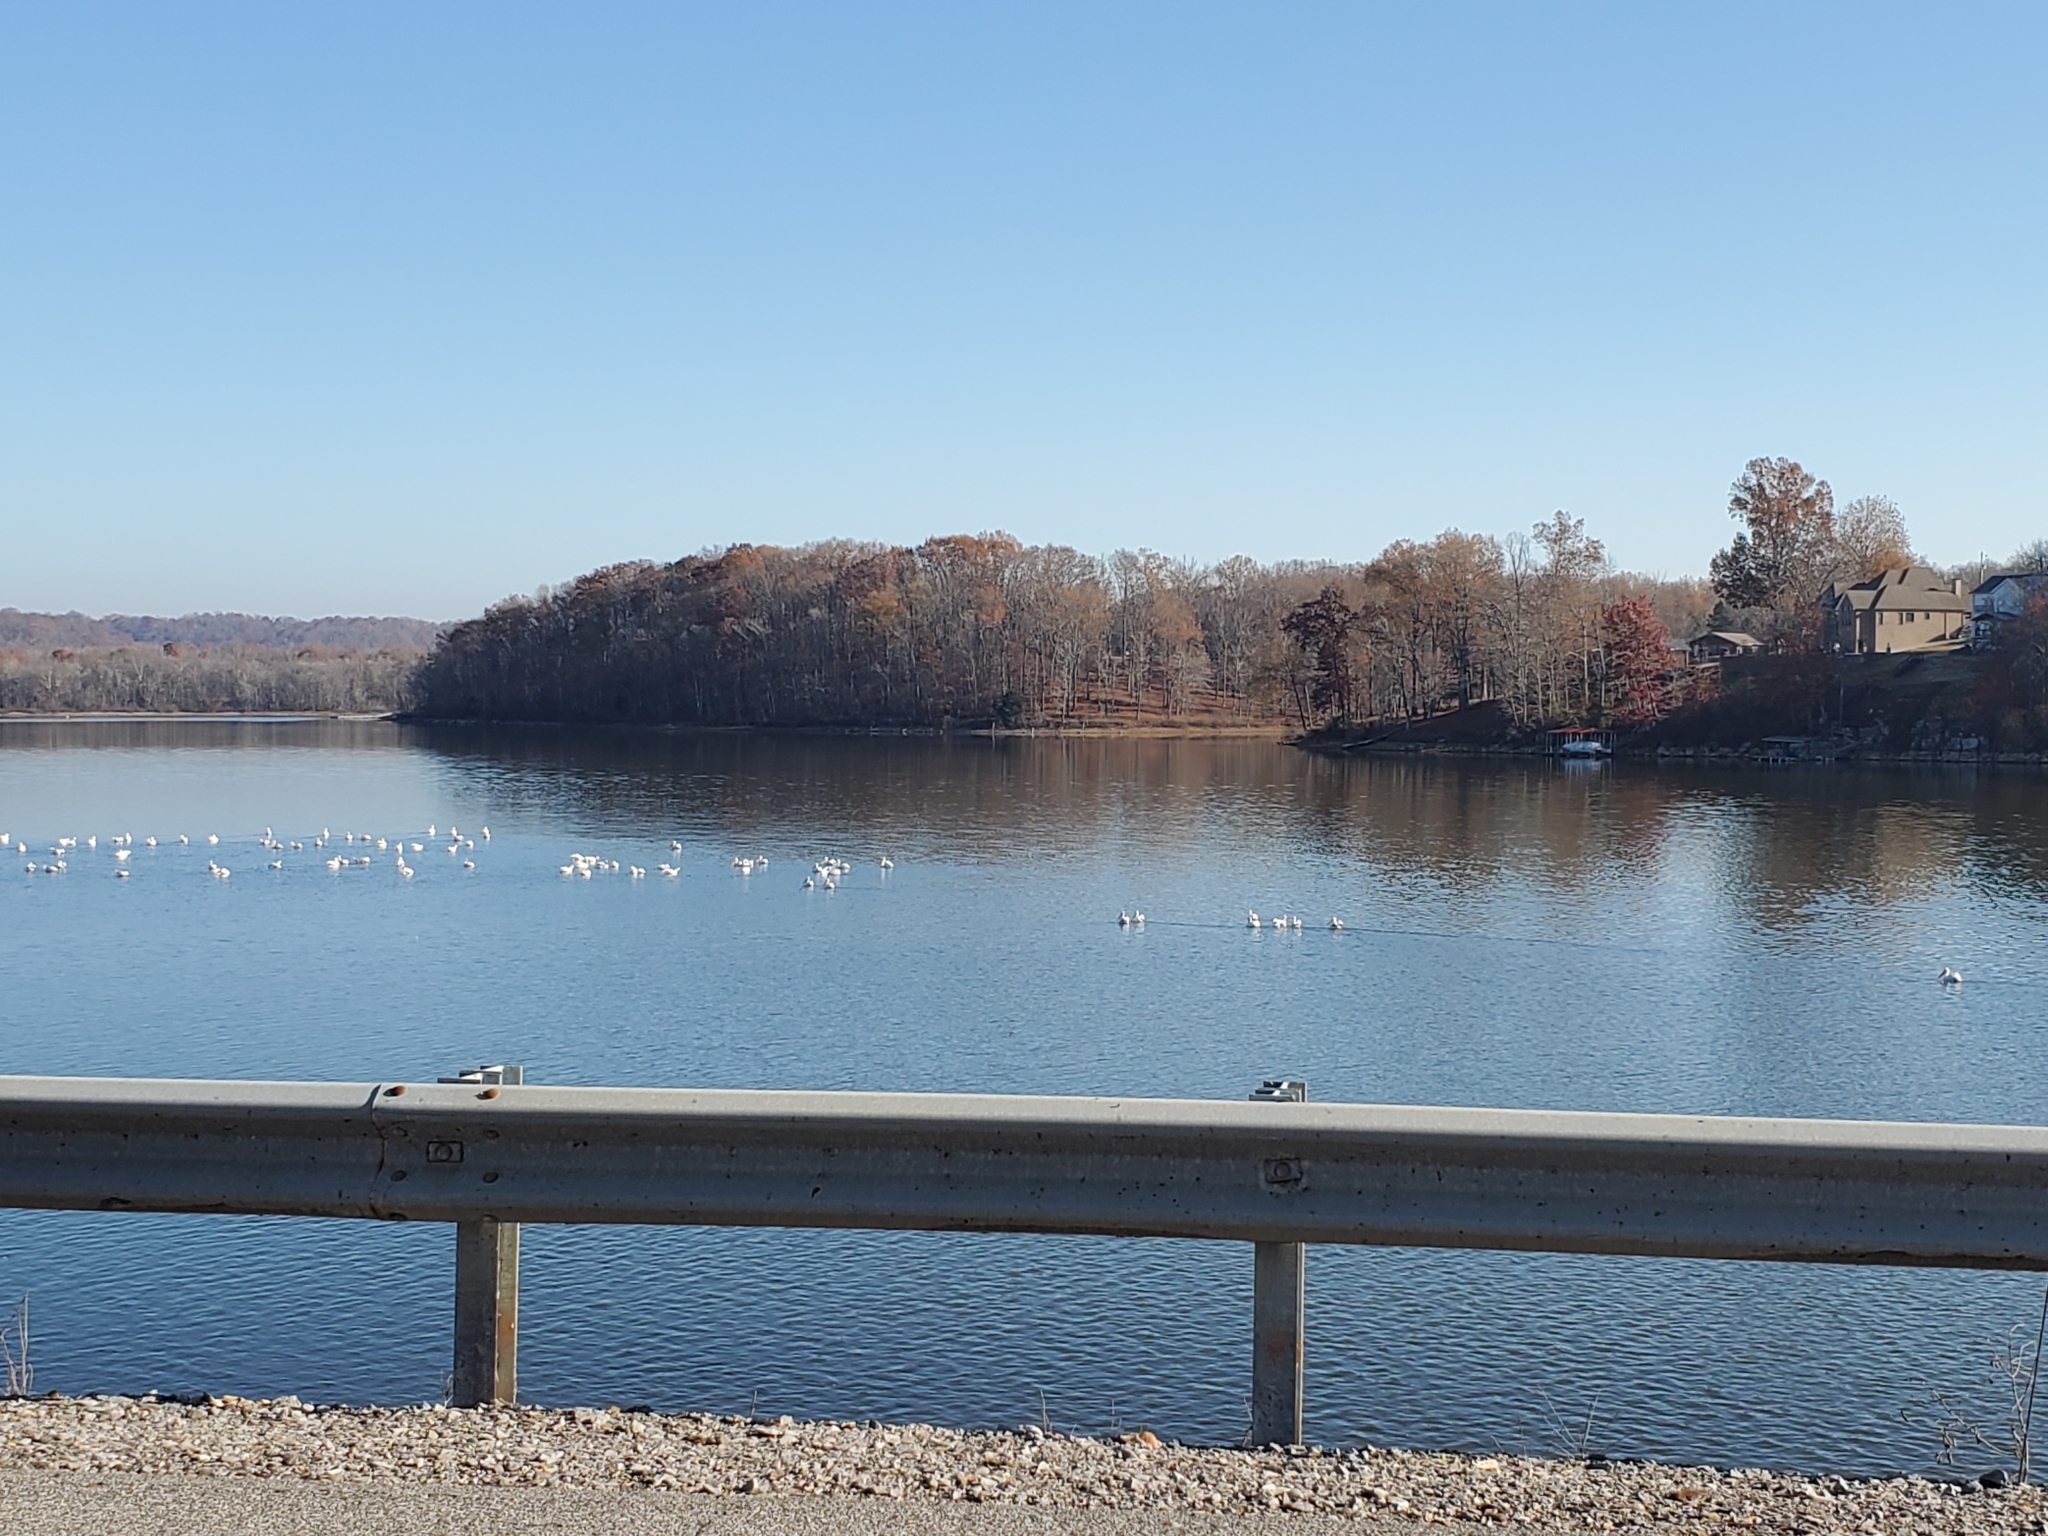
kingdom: Animalia
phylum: Chordata
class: Aves
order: Pelecaniformes
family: Pelecanidae
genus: Pelecanus
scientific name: Pelecanus erythrorhynchos
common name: American white pelican
